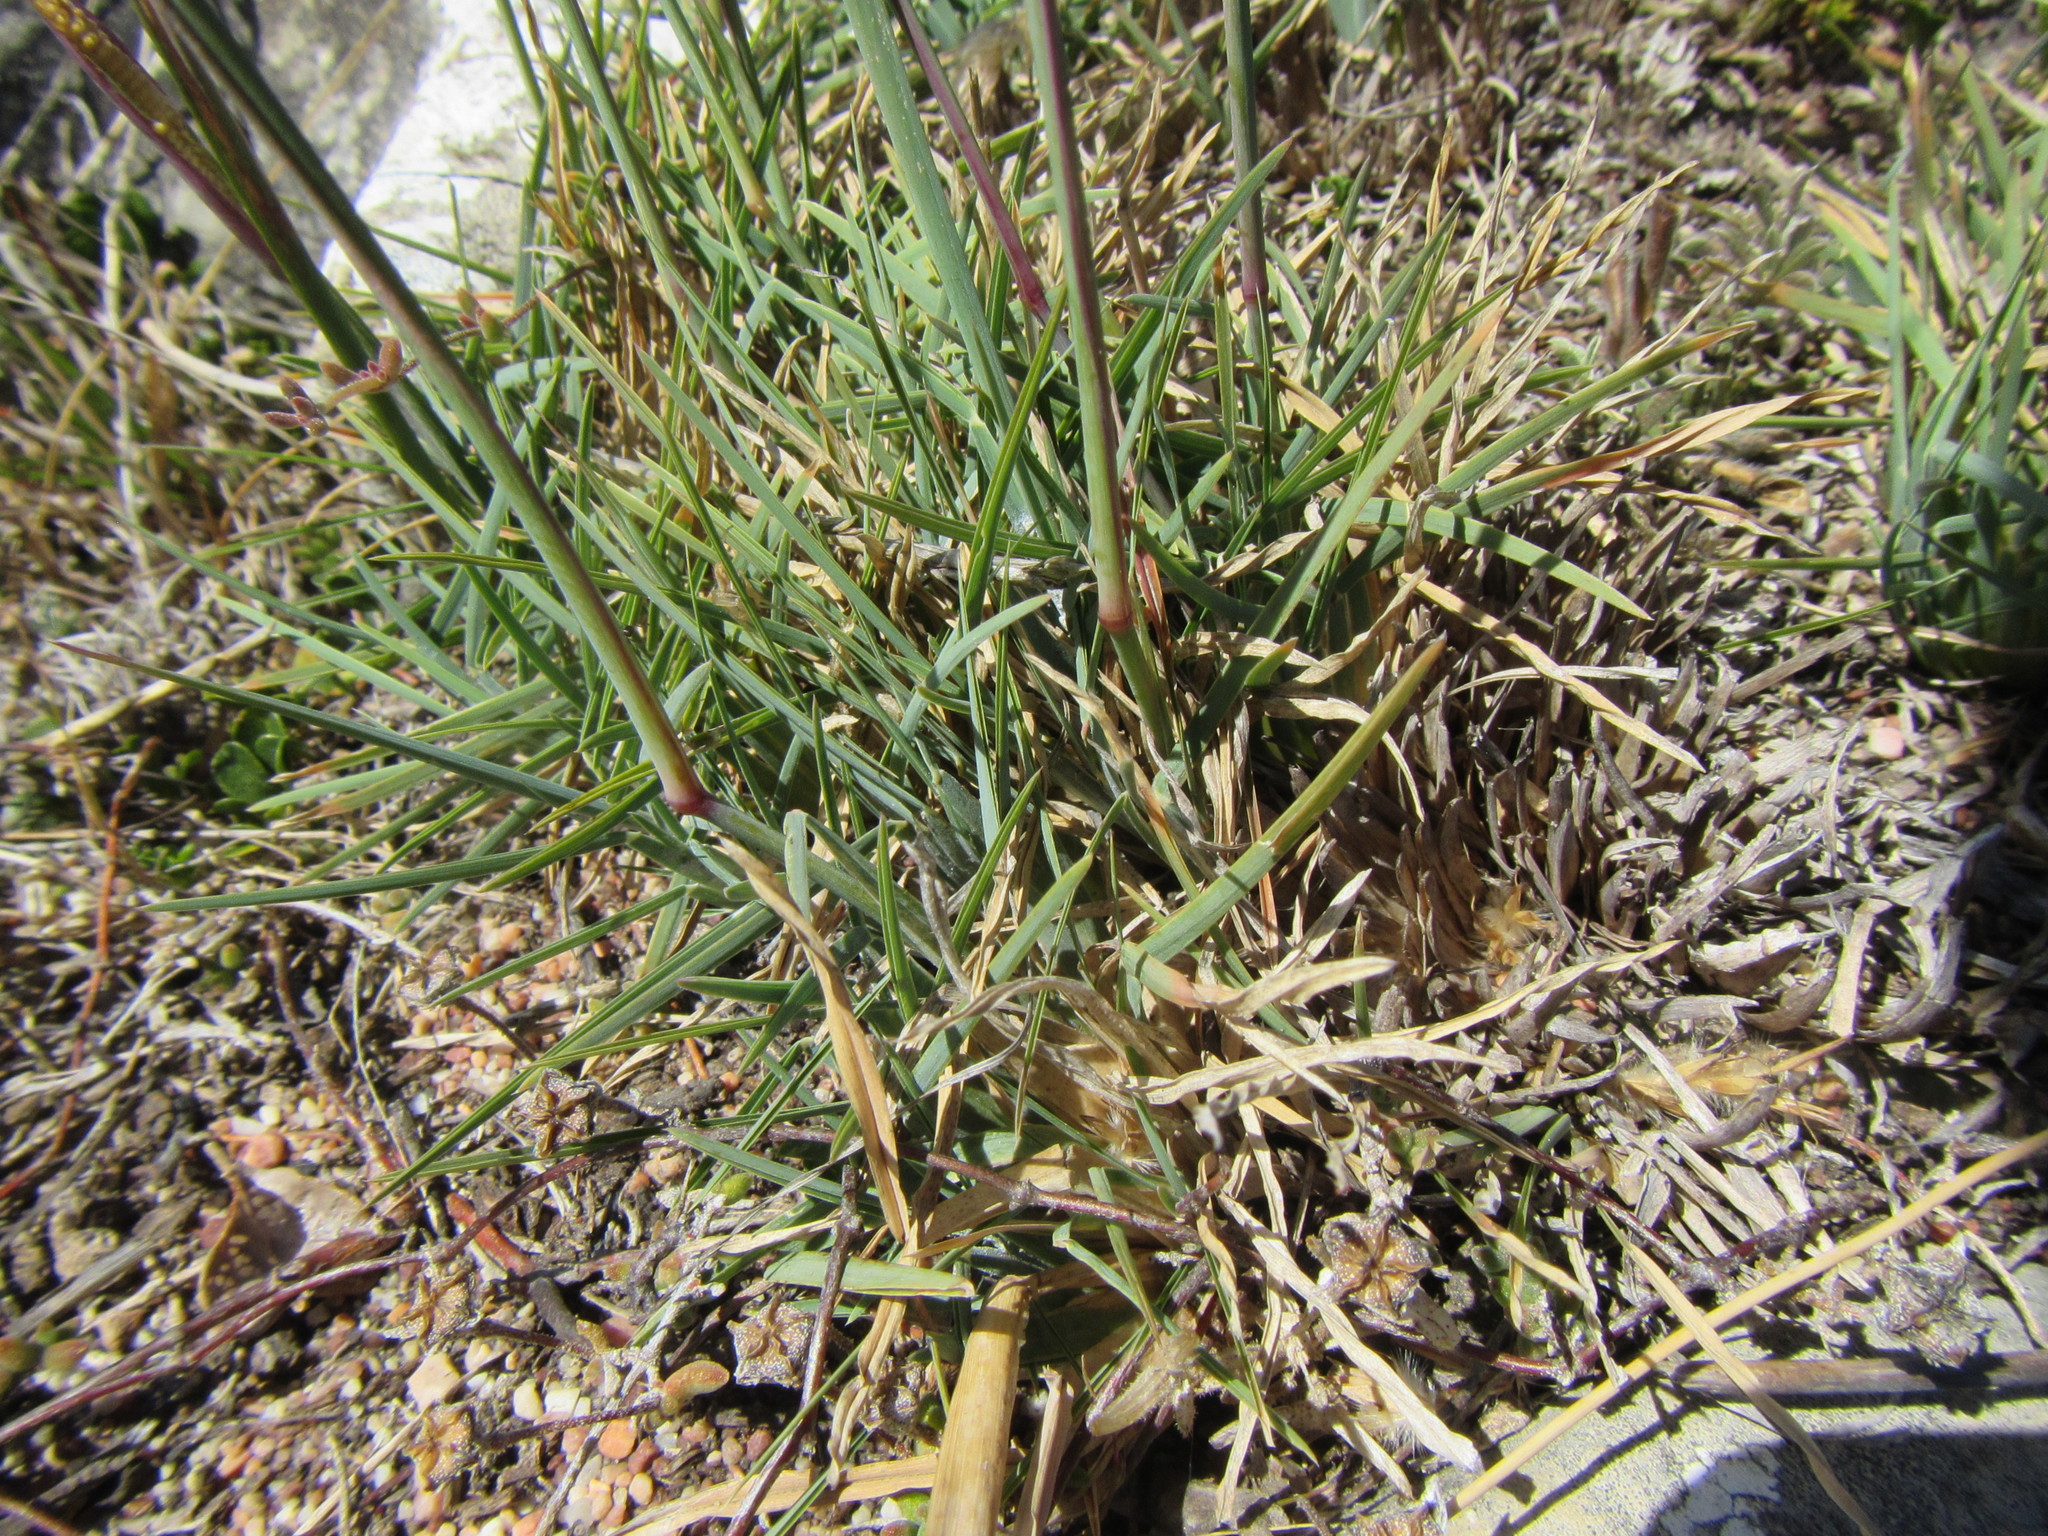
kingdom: Plantae
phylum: Tracheophyta
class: Liliopsida
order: Poales
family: Poaceae
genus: Eustachys
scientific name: Eustachys paspaloides
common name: Caribbean fingergrass
